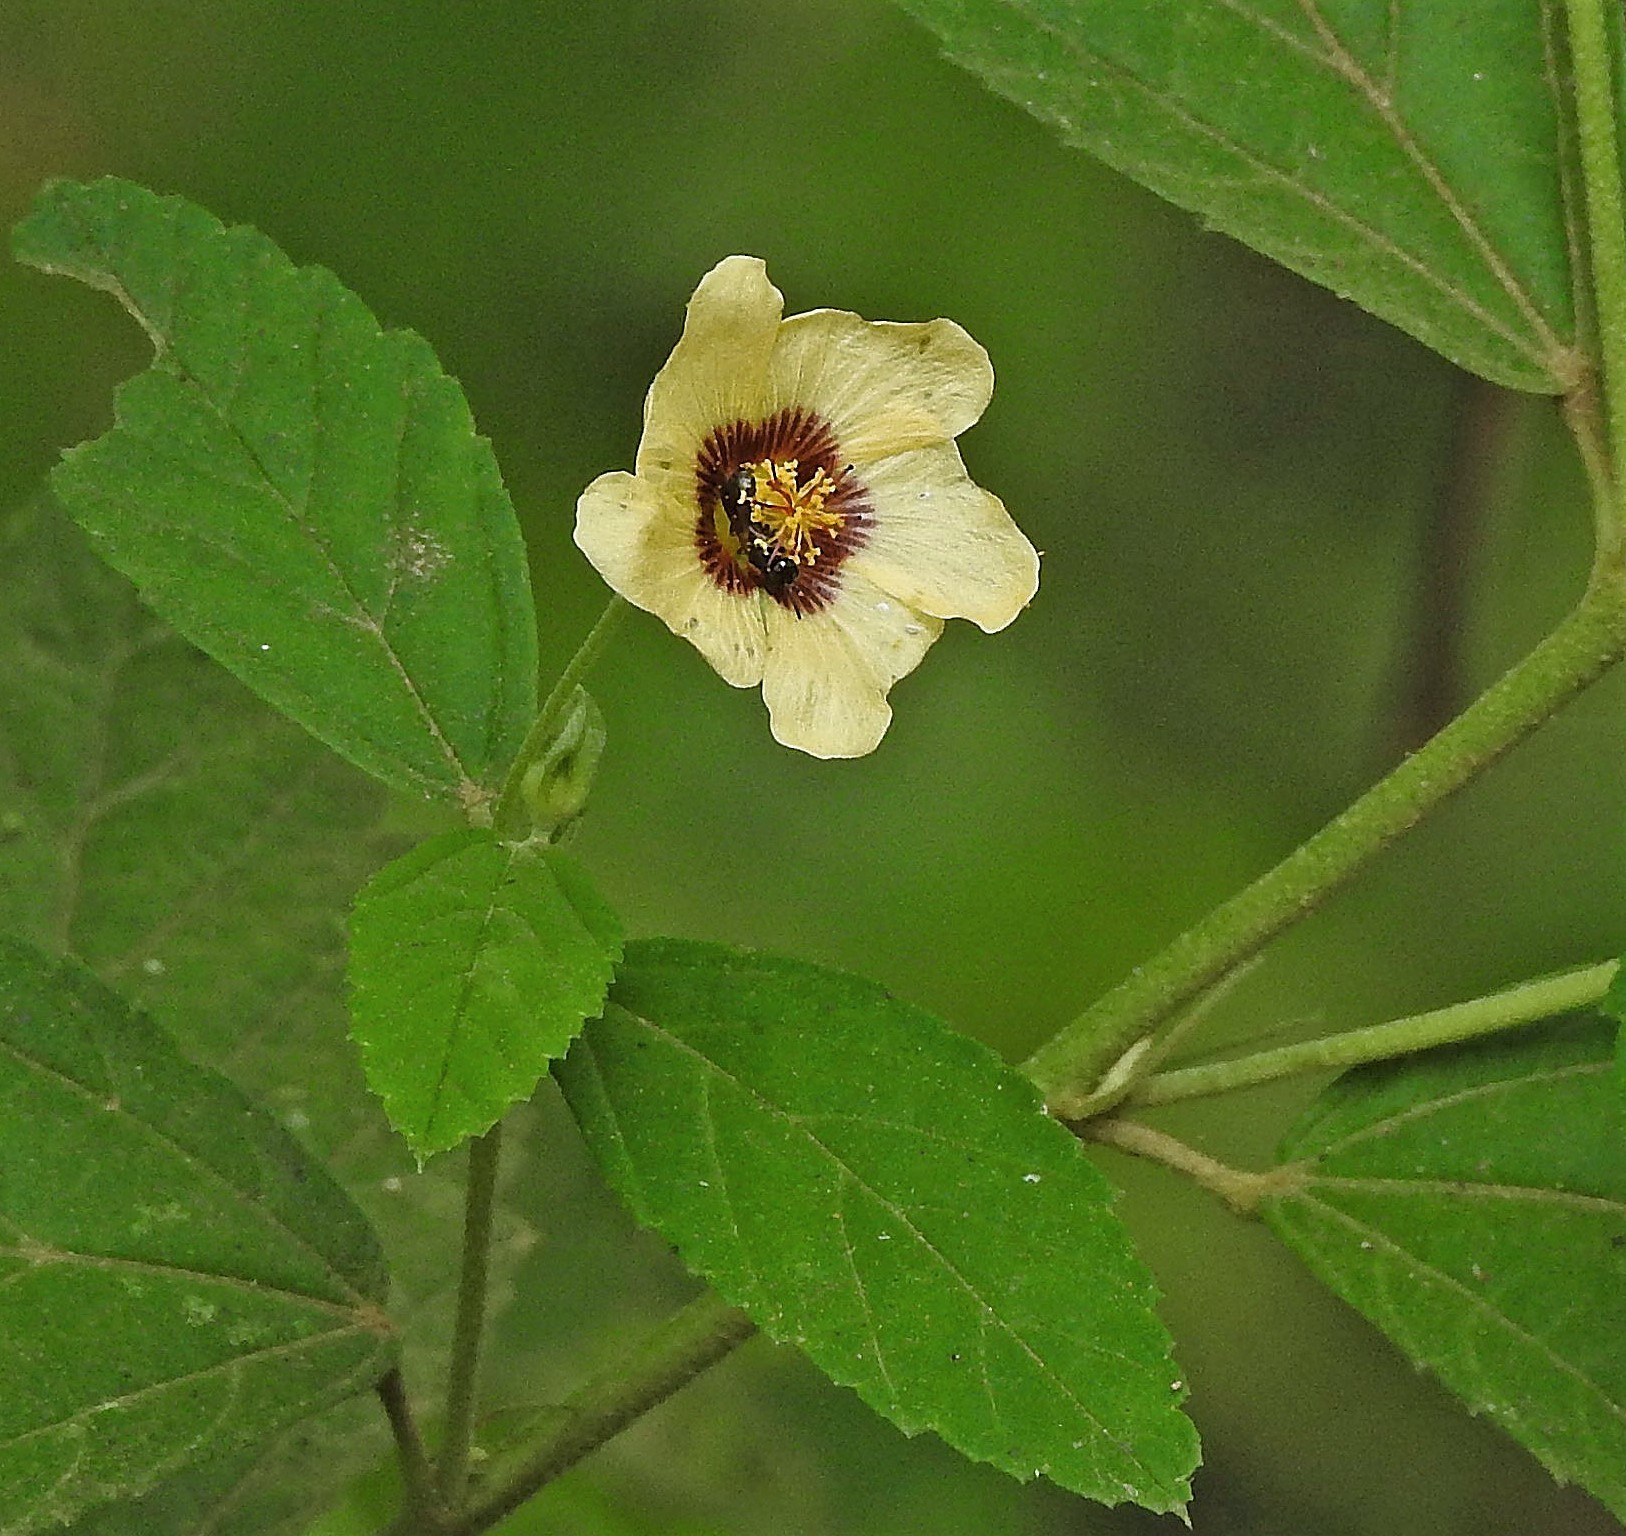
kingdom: Plantae
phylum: Tracheophyta
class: Magnoliopsida
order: Malvales
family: Malvaceae
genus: Sida
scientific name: Sida poeppigiana
